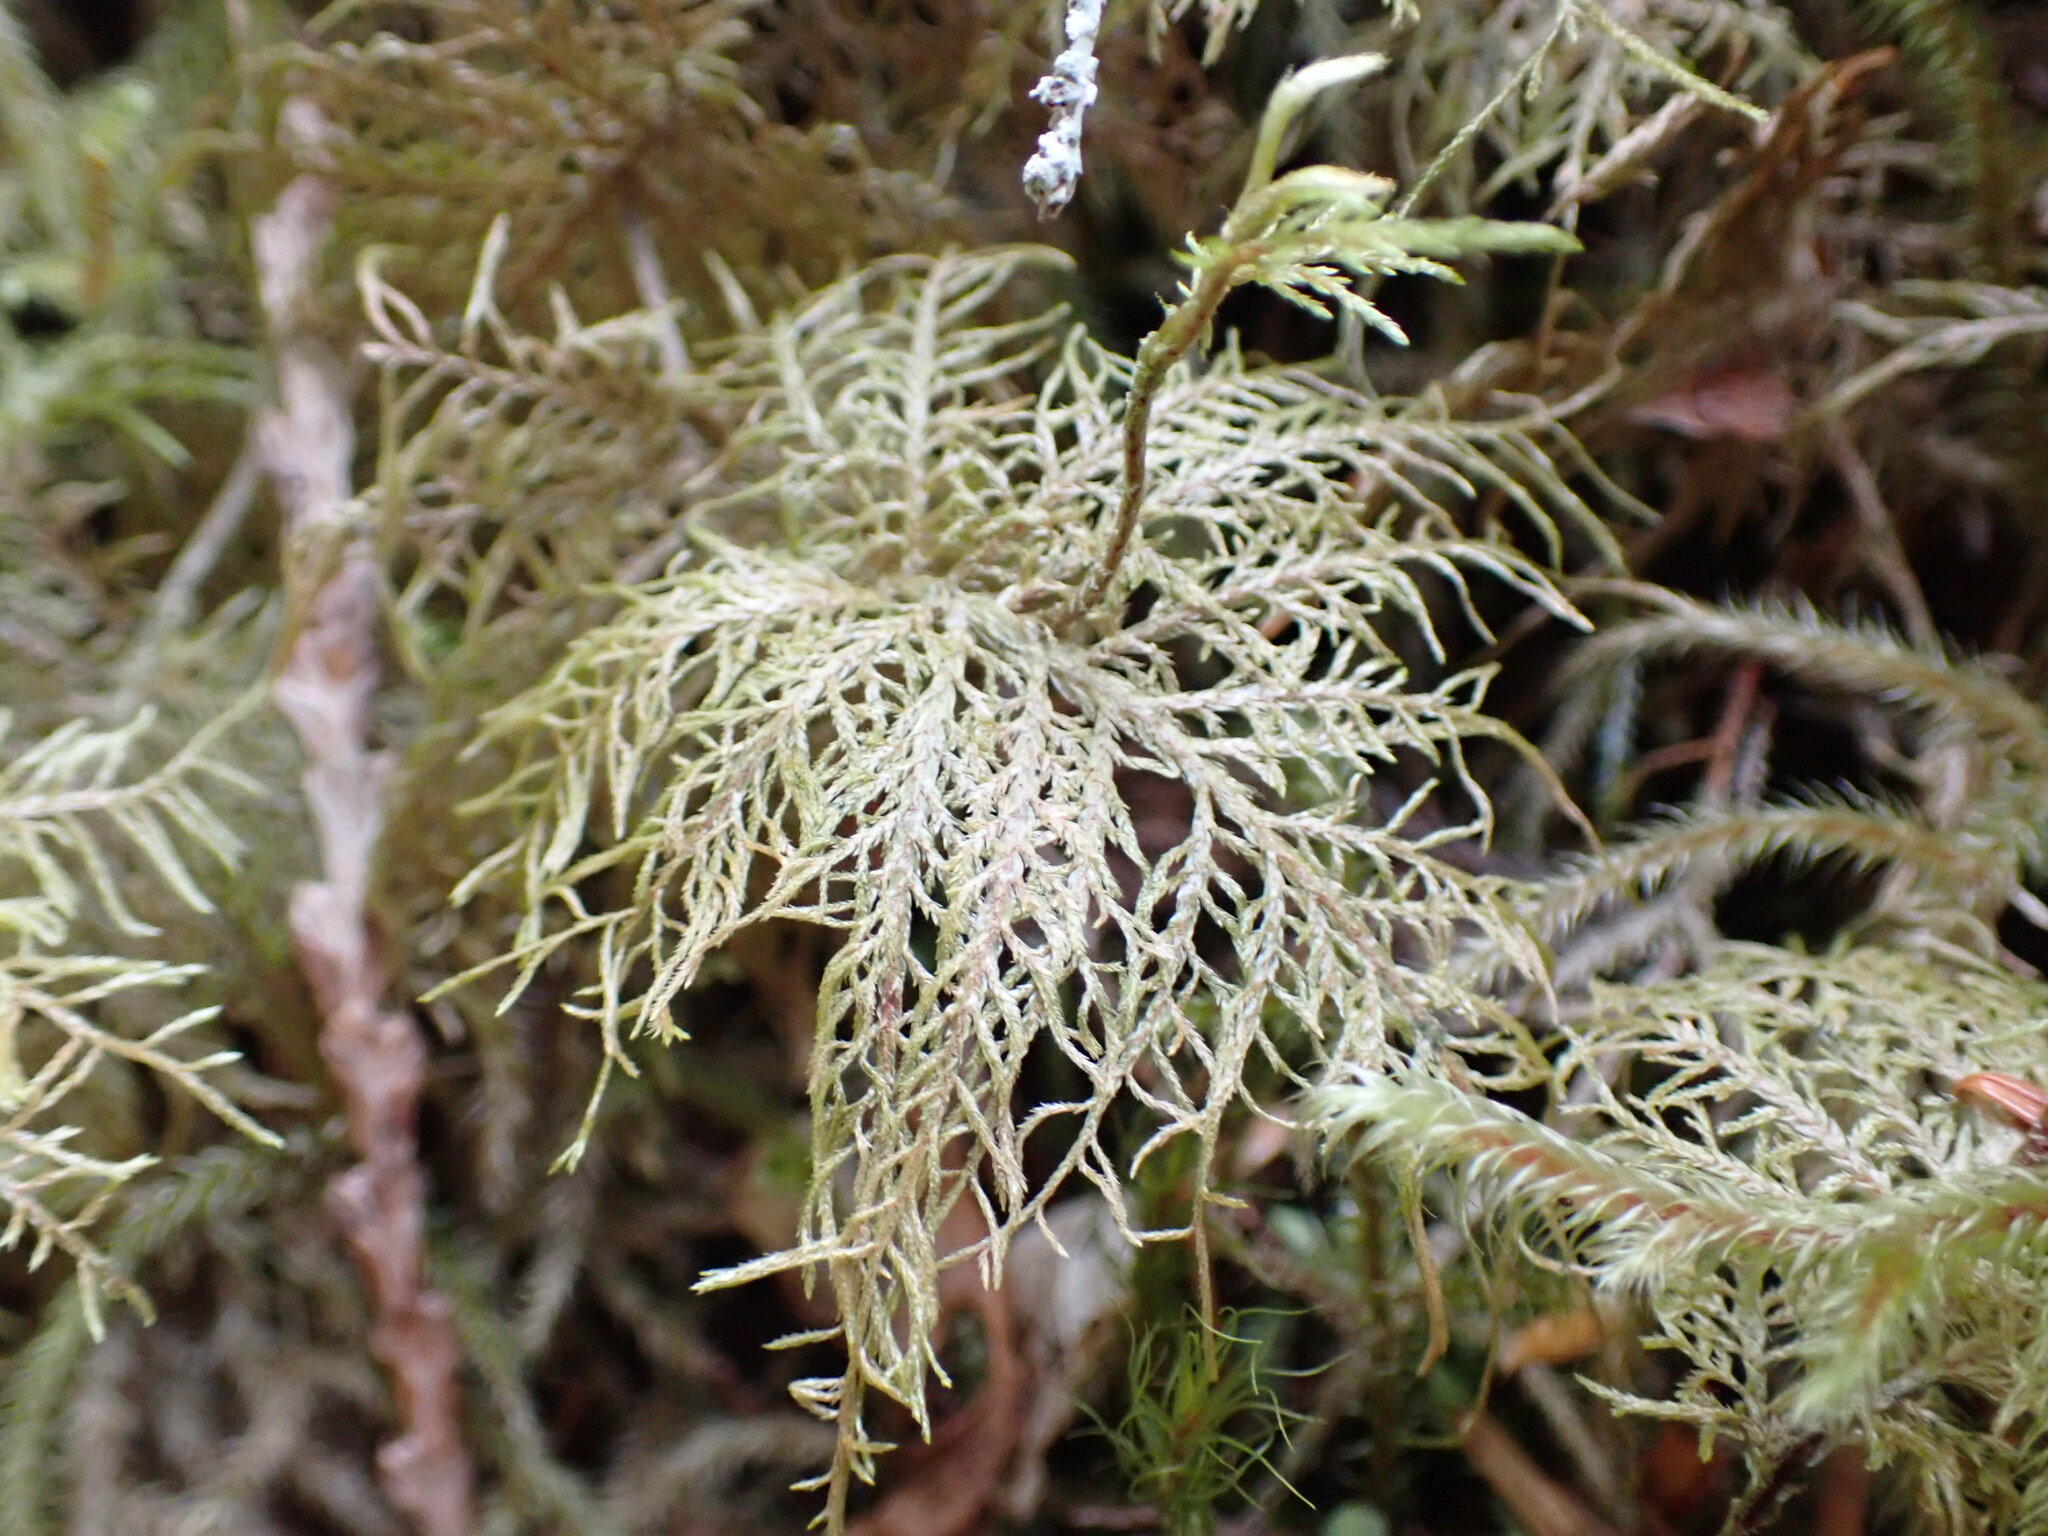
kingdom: Plantae
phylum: Bryophyta
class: Bryopsida
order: Hypnales
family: Hylocomiaceae
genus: Hylocomium
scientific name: Hylocomium splendens
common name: Stairstep moss
